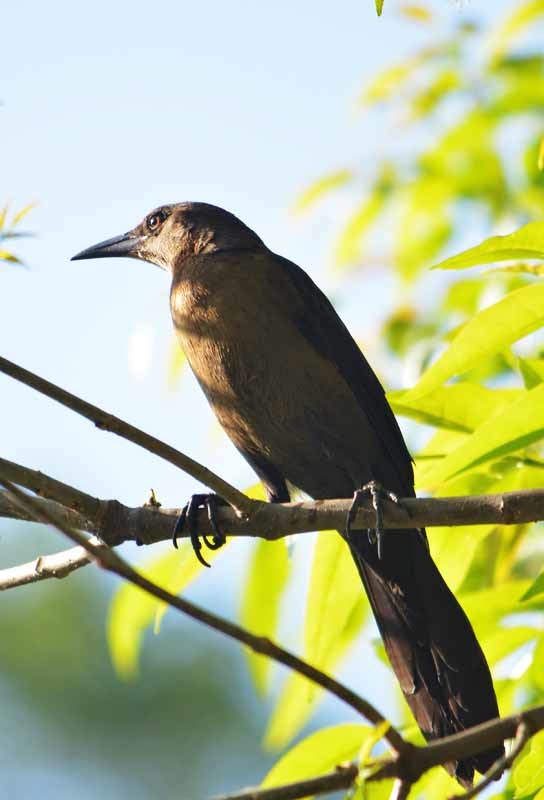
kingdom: Animalia
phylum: Chordata
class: Aves
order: Passeriformes
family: Icteridae
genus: Quiscalus
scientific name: Quiscalus mexicanus
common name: Great-tailed grackle
